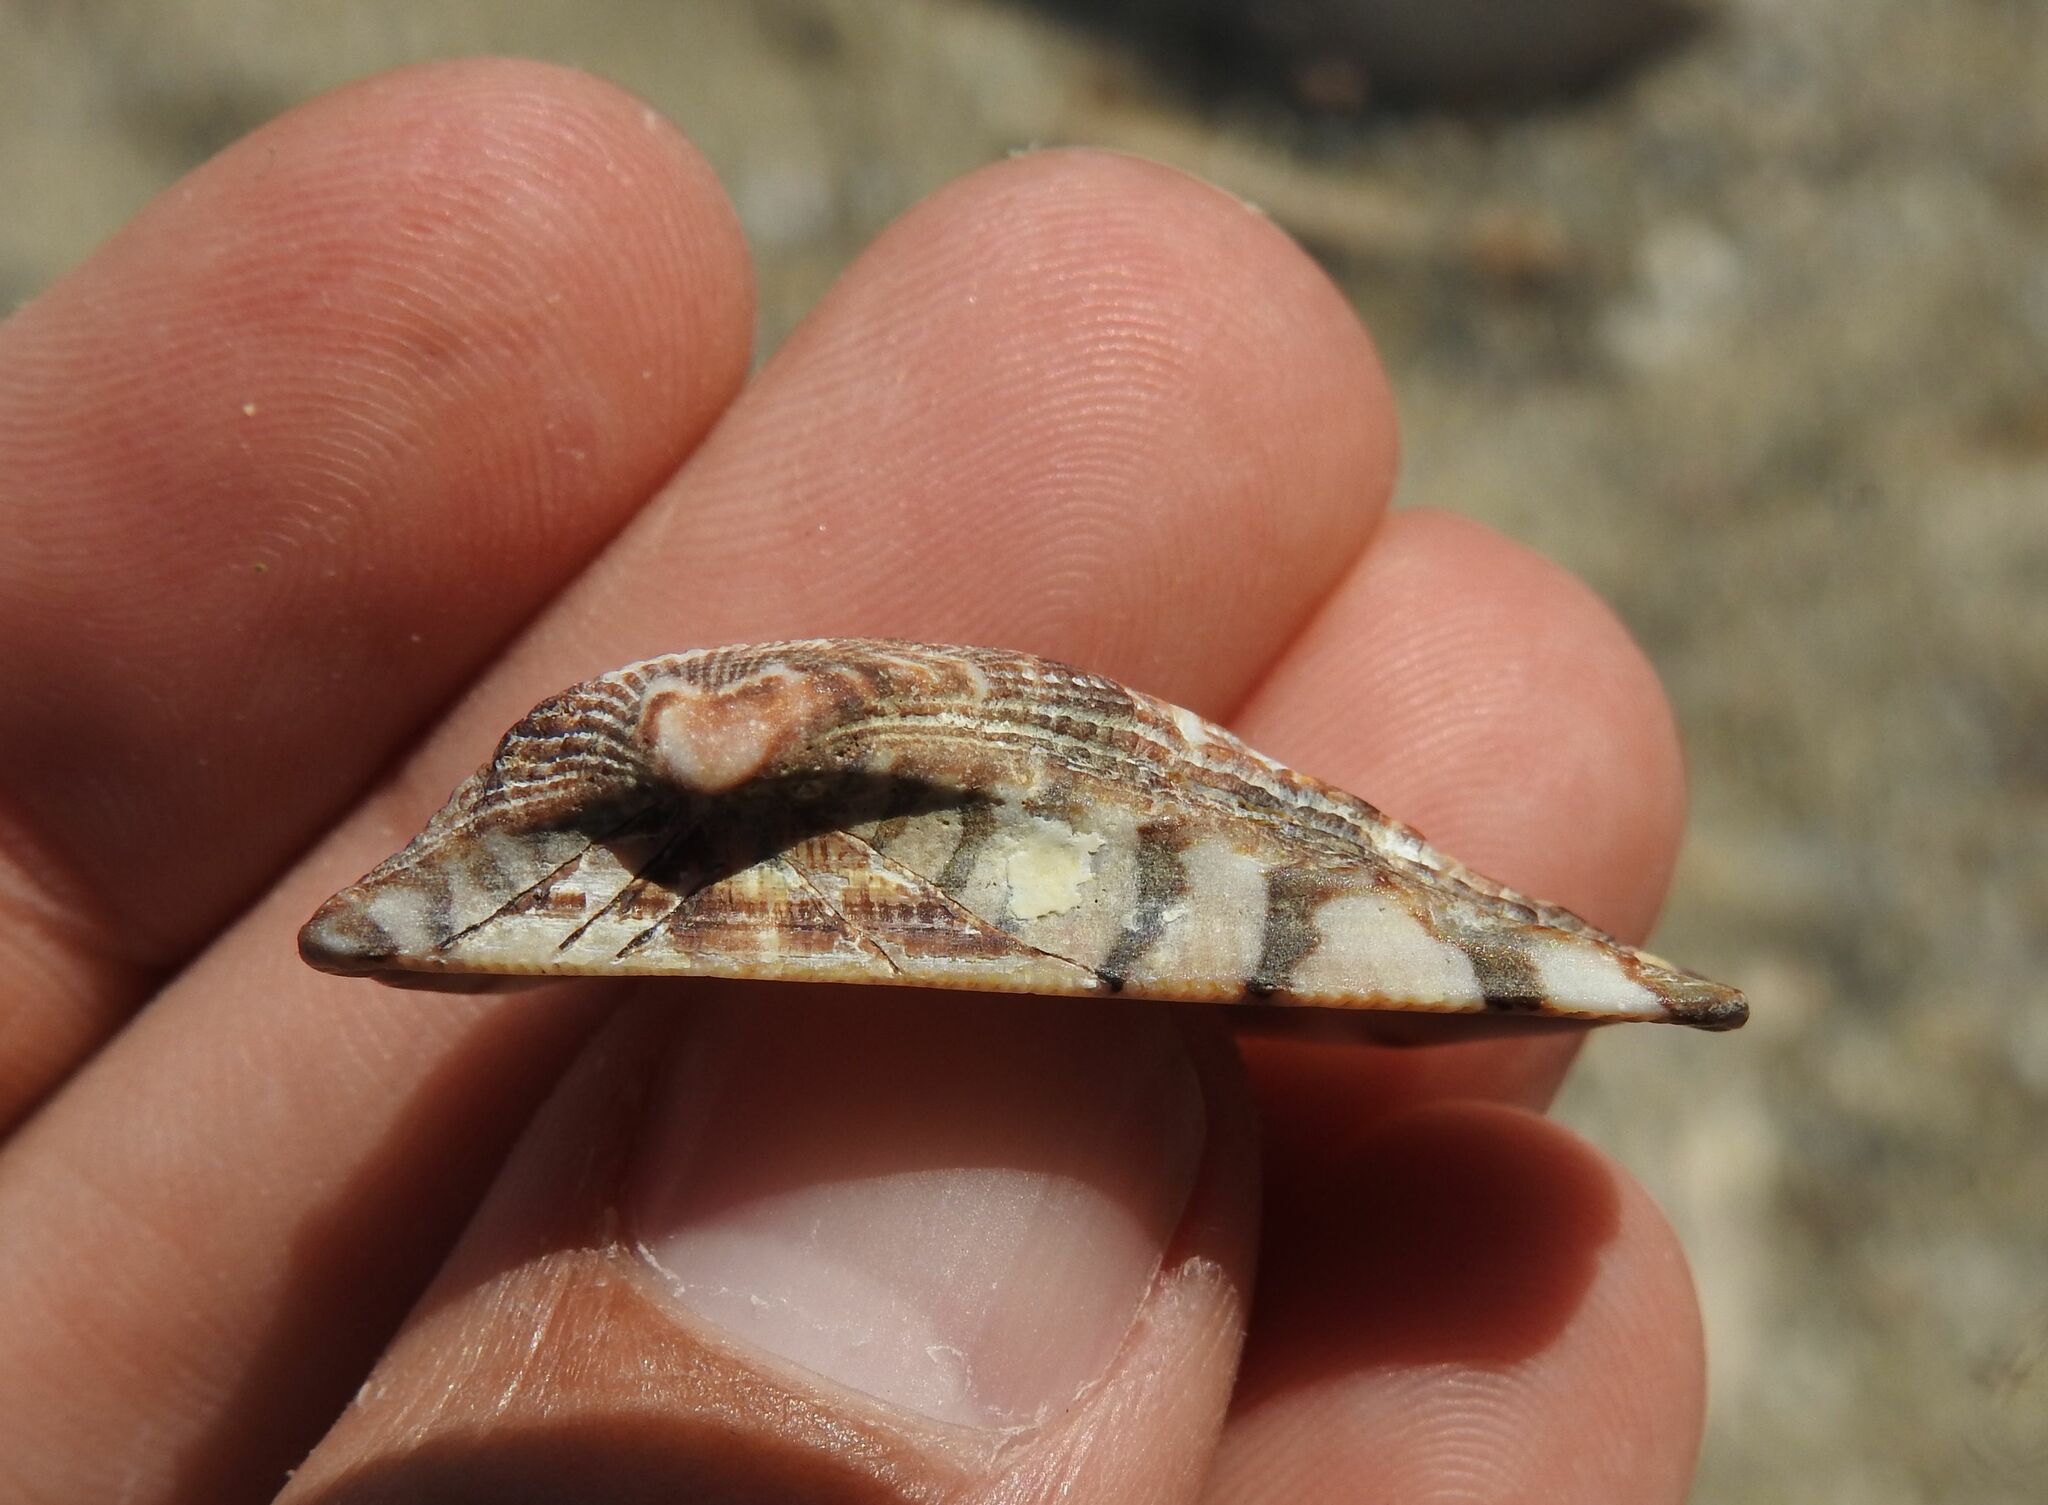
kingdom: Animalia
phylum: Mollusca
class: Bivalvia
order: Arcida
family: Arcidae
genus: Arca
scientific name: Arca noae
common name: Noah's arch
